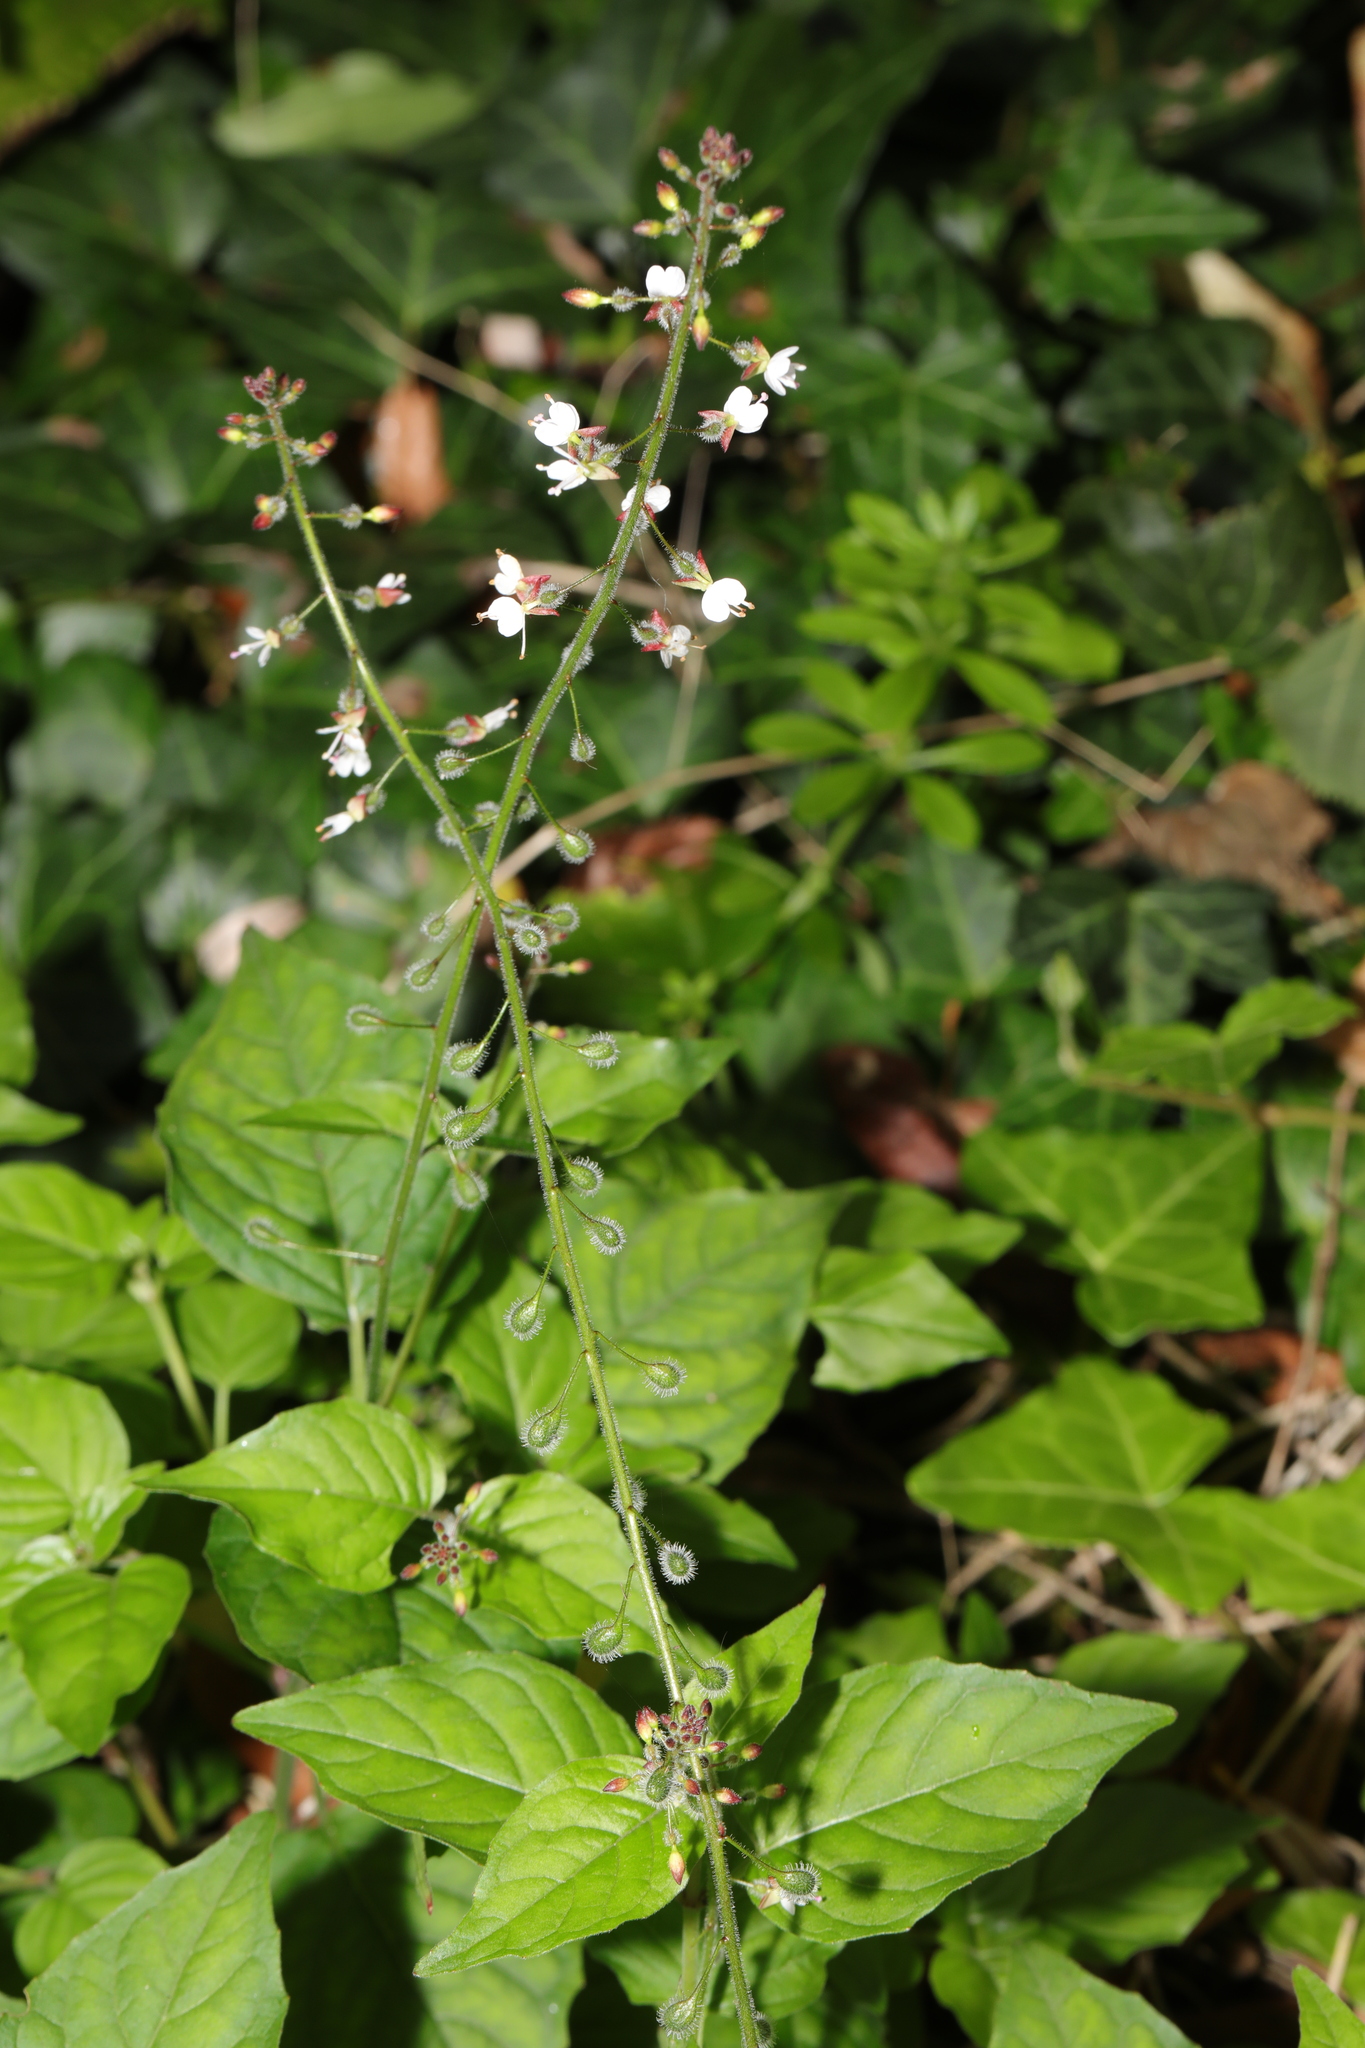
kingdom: Plantae
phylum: Tracheophyta
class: Magnoliopsida
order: Myrtales
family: Onagraceae
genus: Circaea
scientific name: Circaea lutetiana
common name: Enchanter's-nightshade
